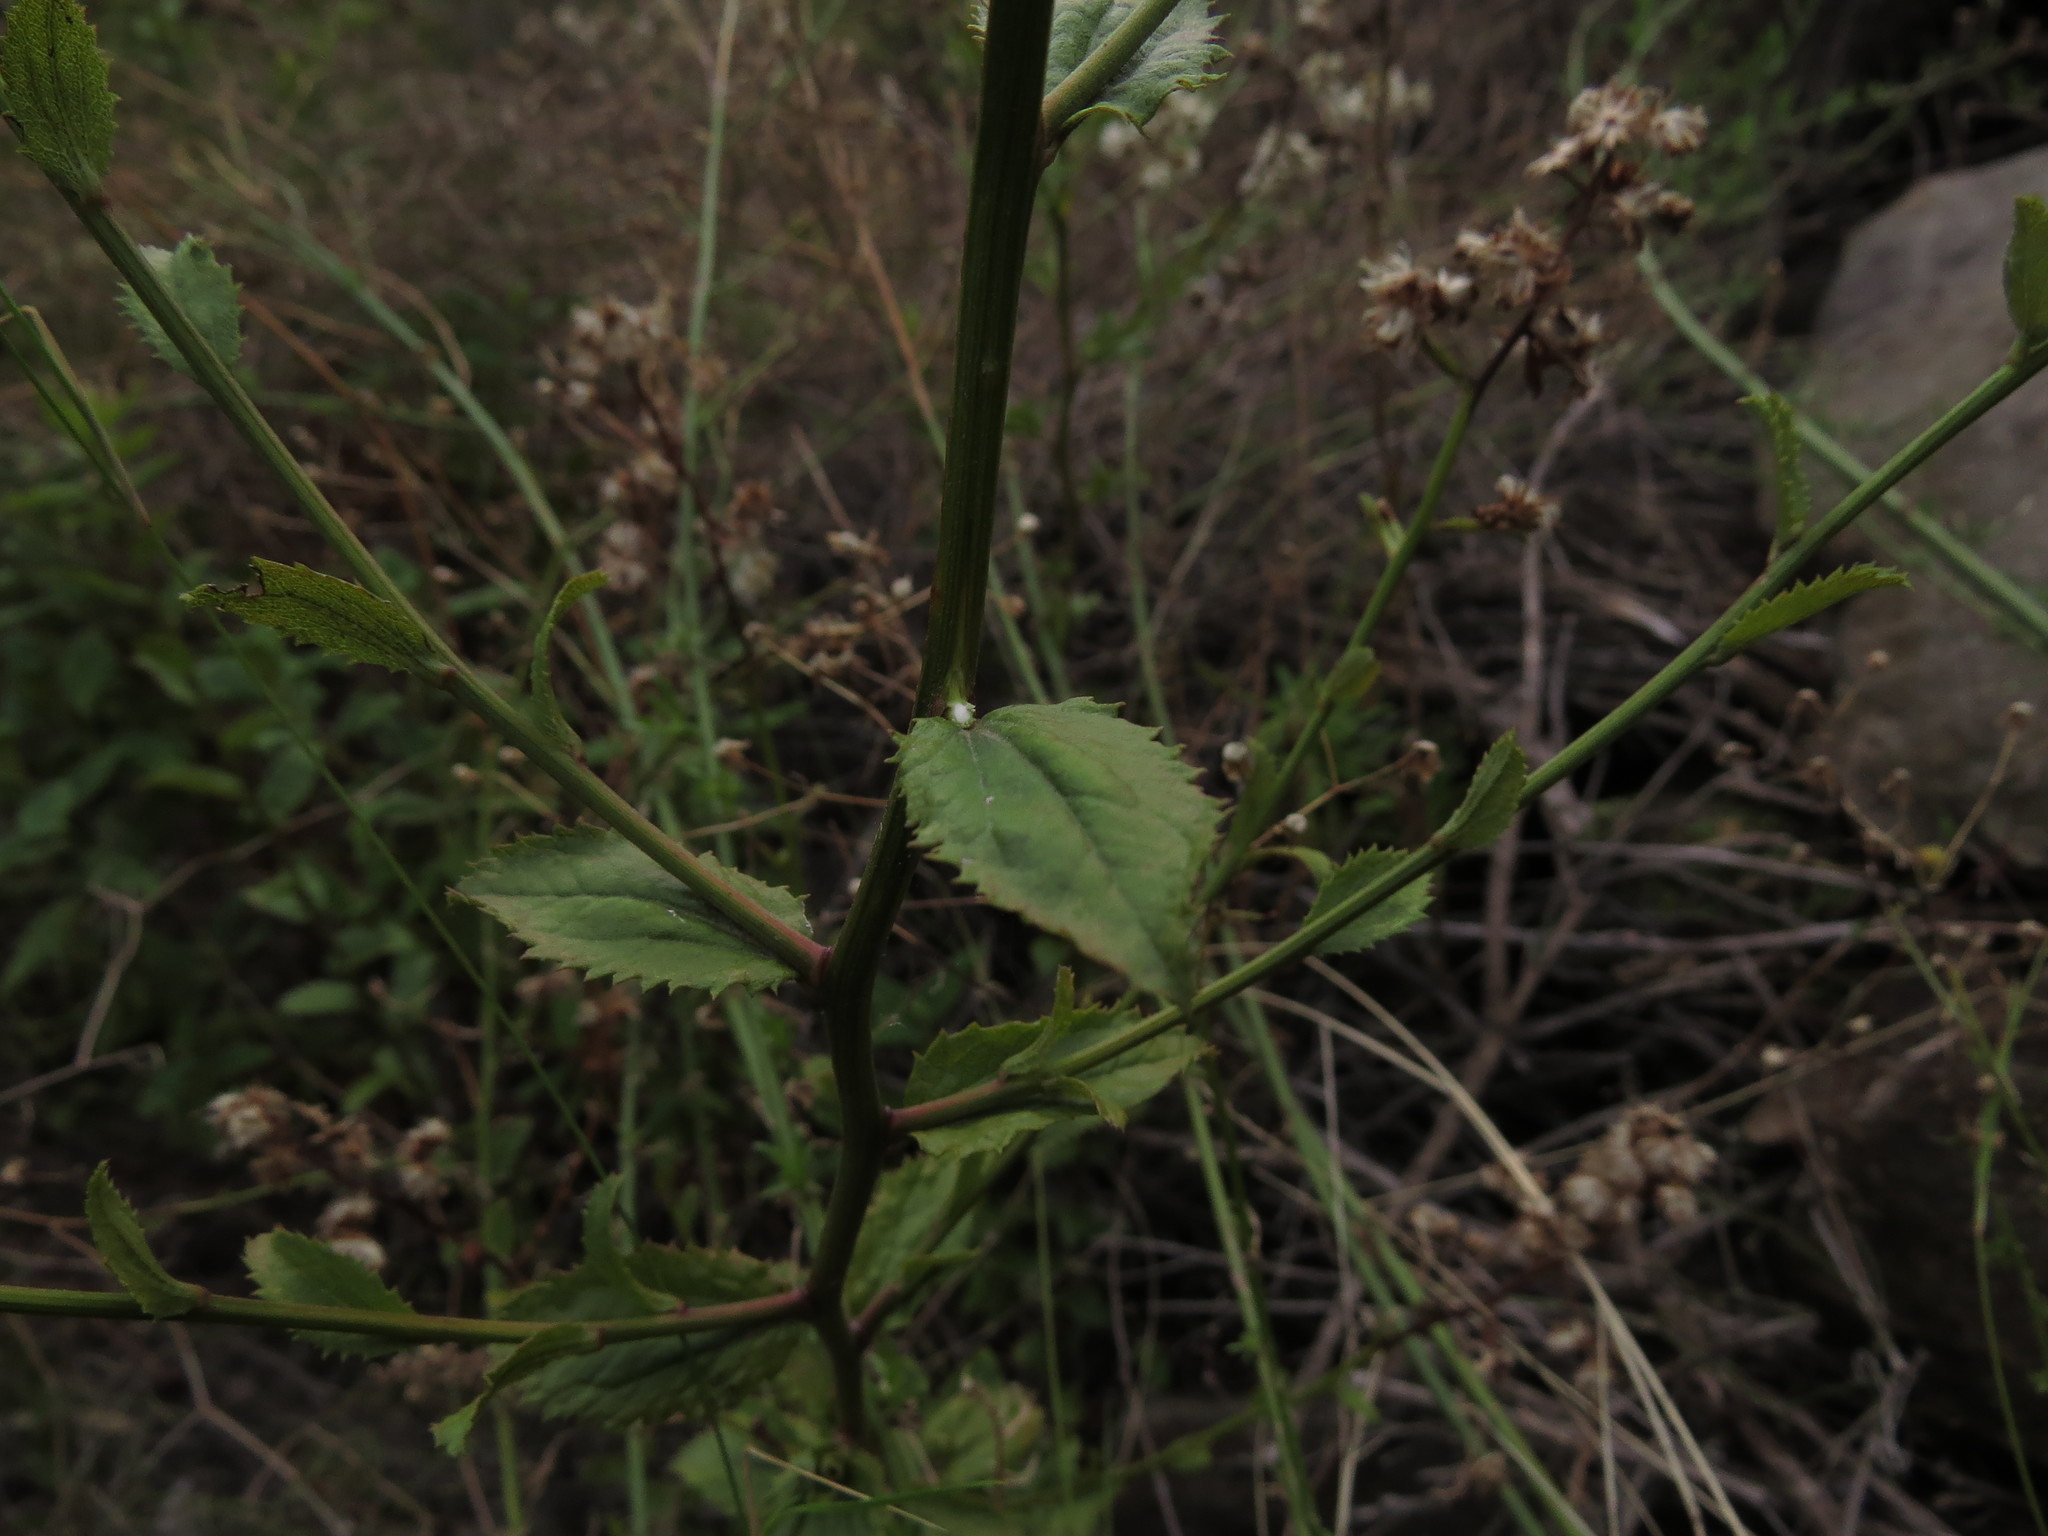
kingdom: Plantae
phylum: Tracheophyta
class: Magnoliopsida
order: Asterales
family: Asteraceae
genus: Baccharis
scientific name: Baccharis racemosa
